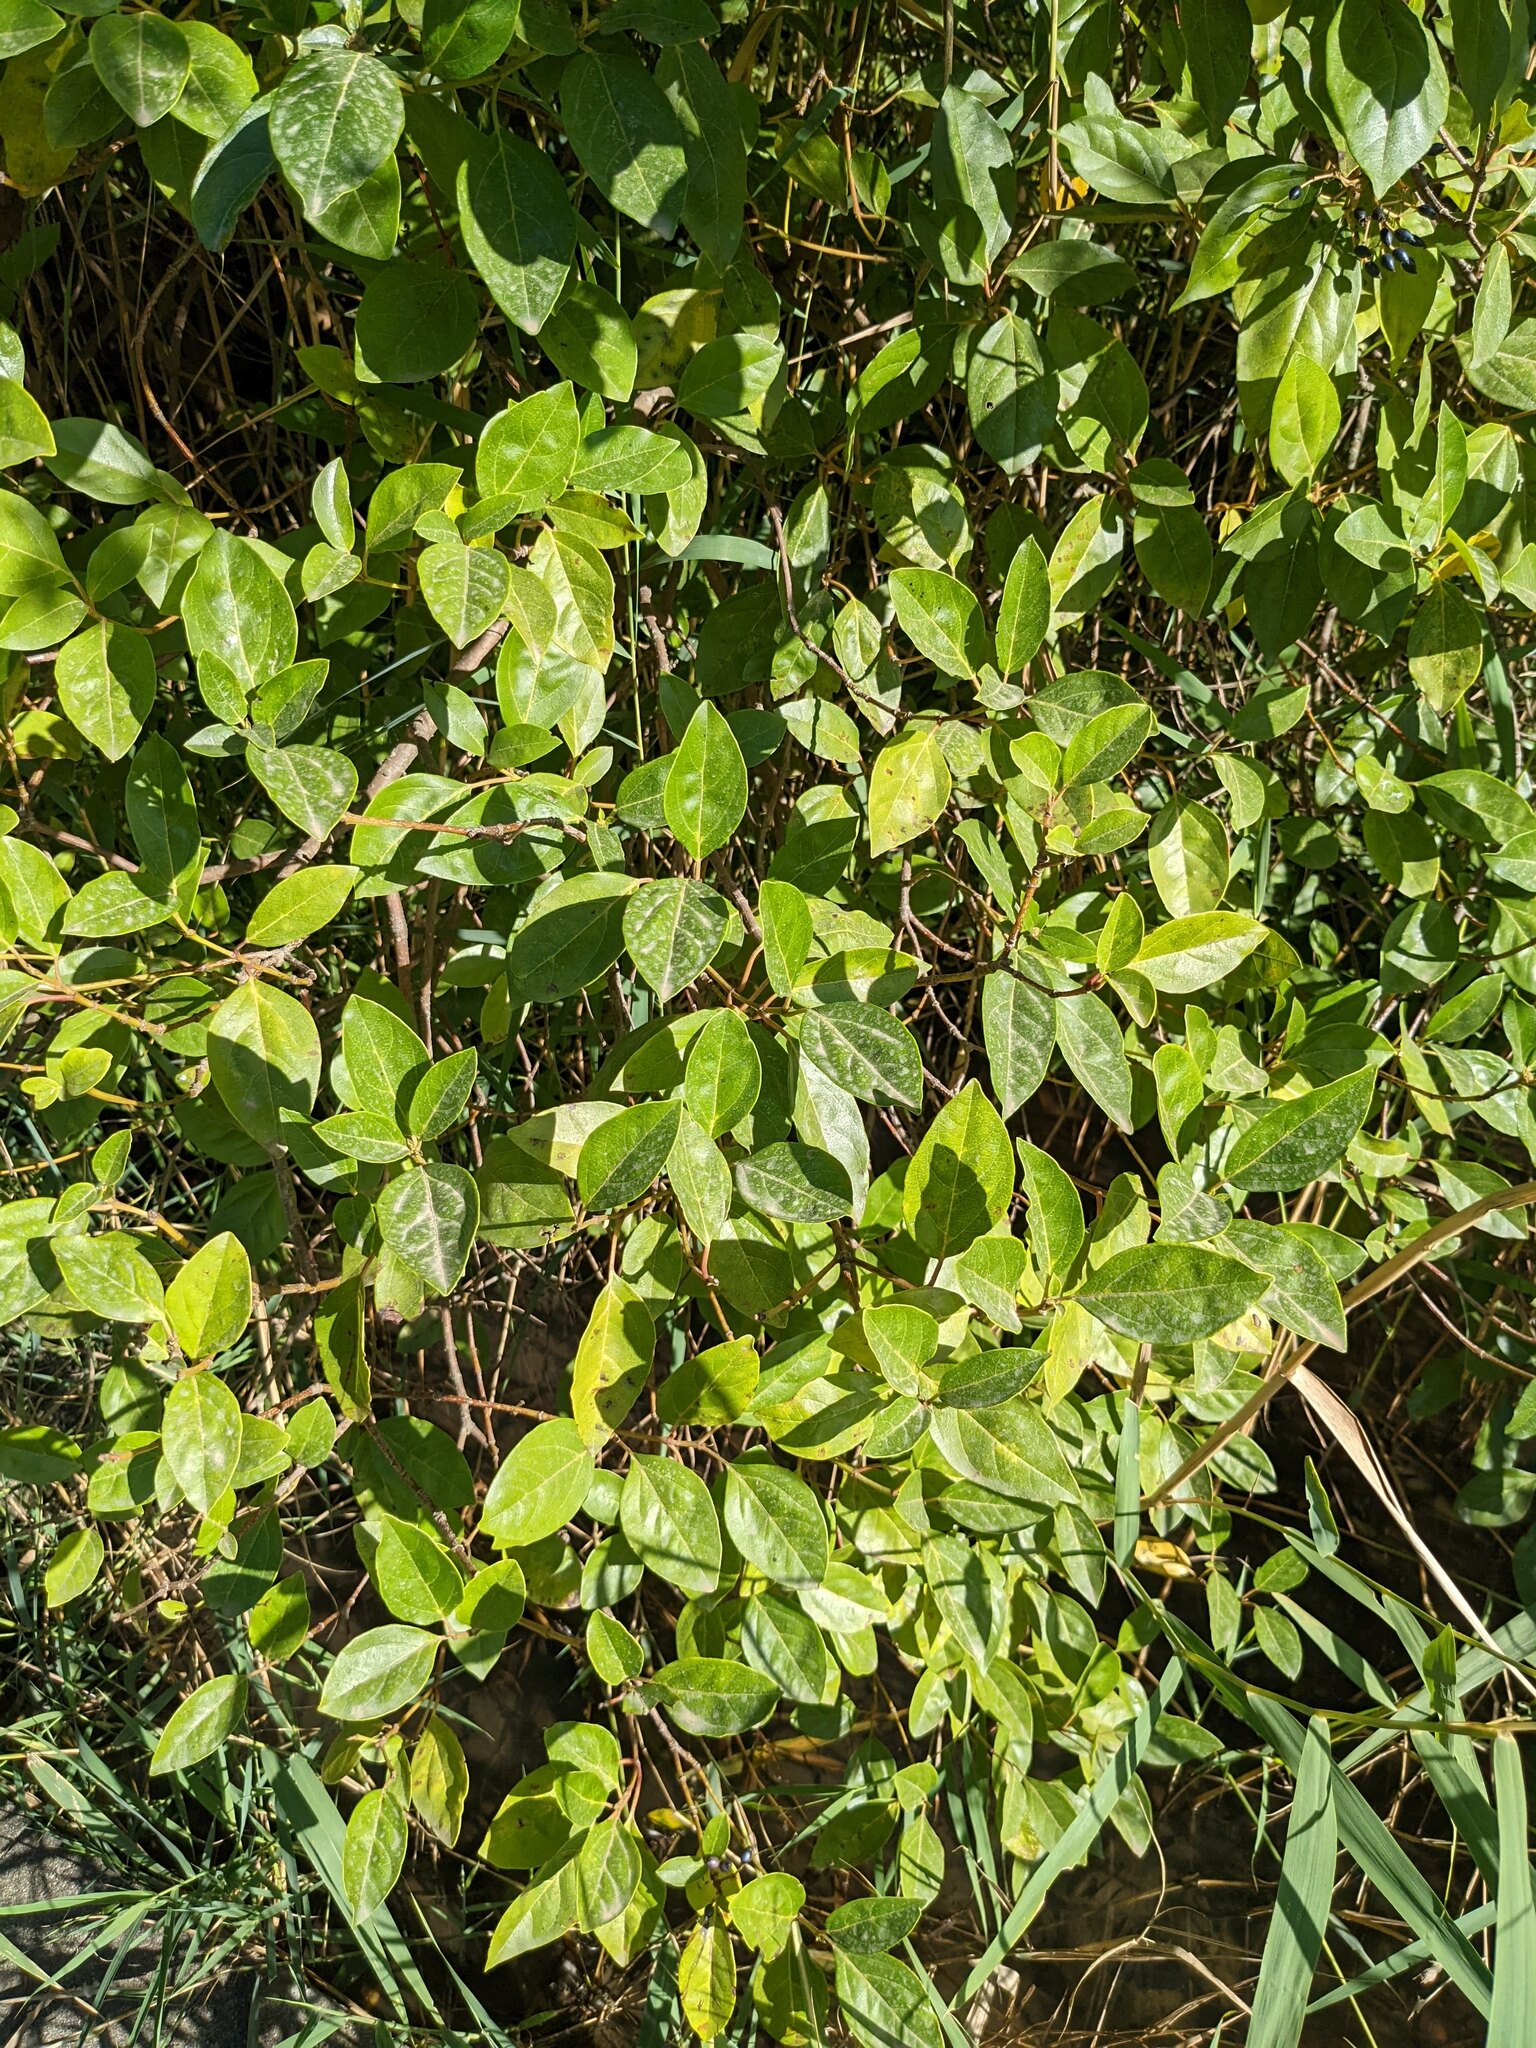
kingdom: Plantae
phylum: Tracheophyta
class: Magnoliopsida
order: Dipsacales
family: Viburnaceae
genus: Viburnum
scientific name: Viburnum tinus
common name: Laurustinus
